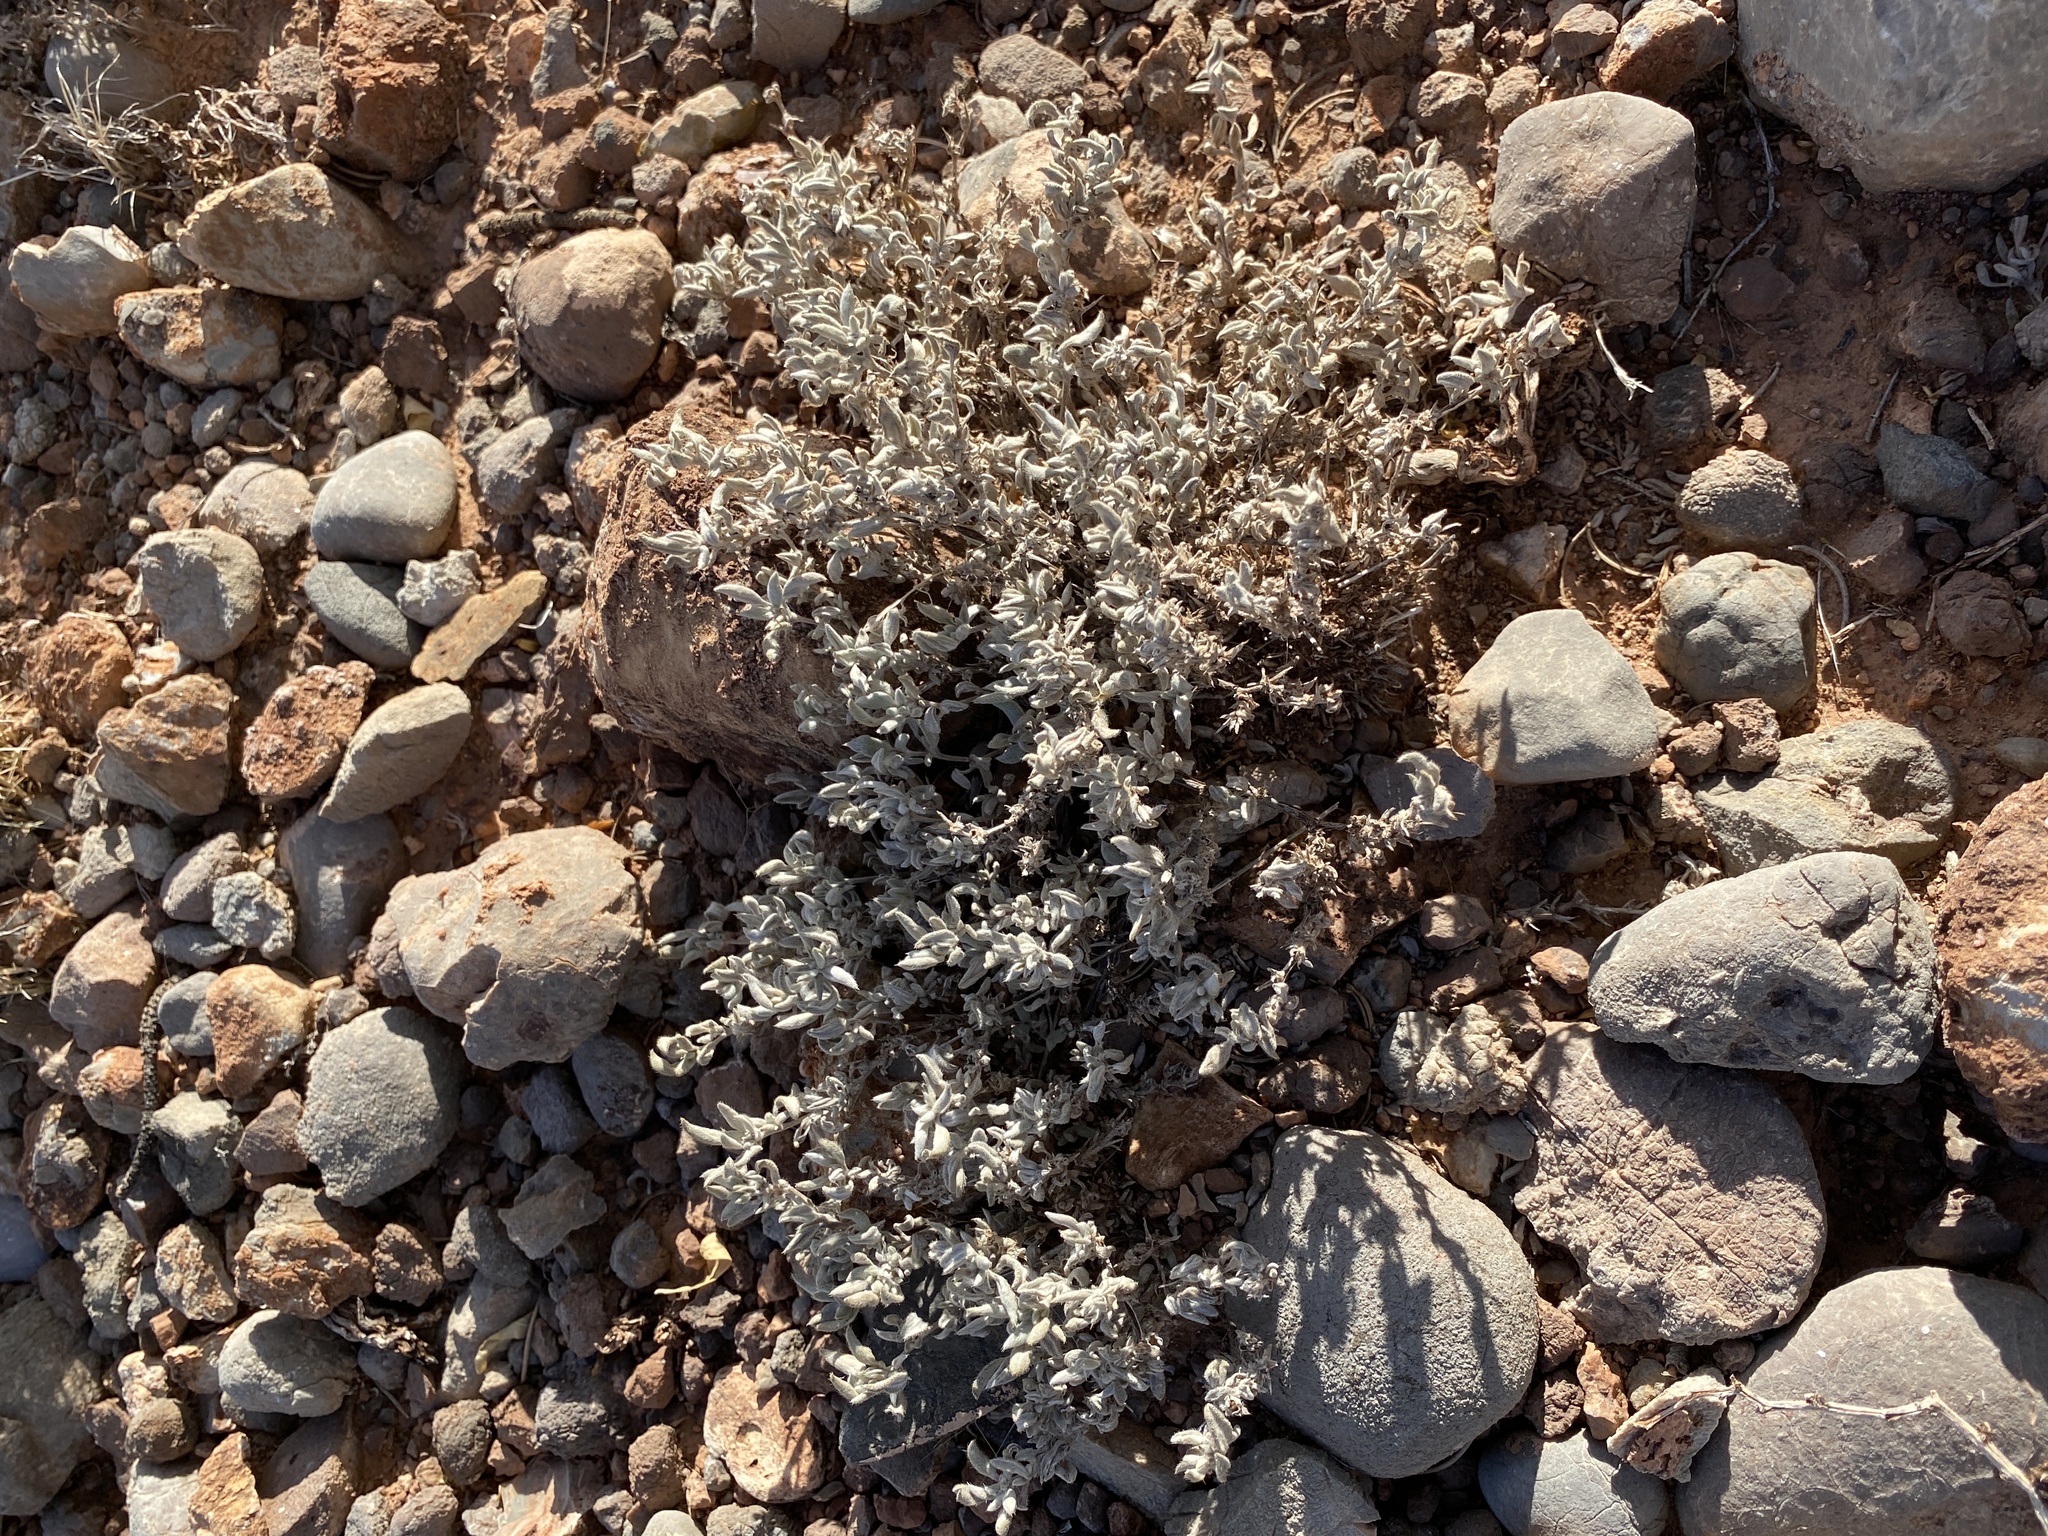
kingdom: Plantae
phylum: Tracheophyta
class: Magnoliopsida
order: Boraginales
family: Ehretiaceae
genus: Tiquilia
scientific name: Tiquilia canescens
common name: Hairy tiquilia
